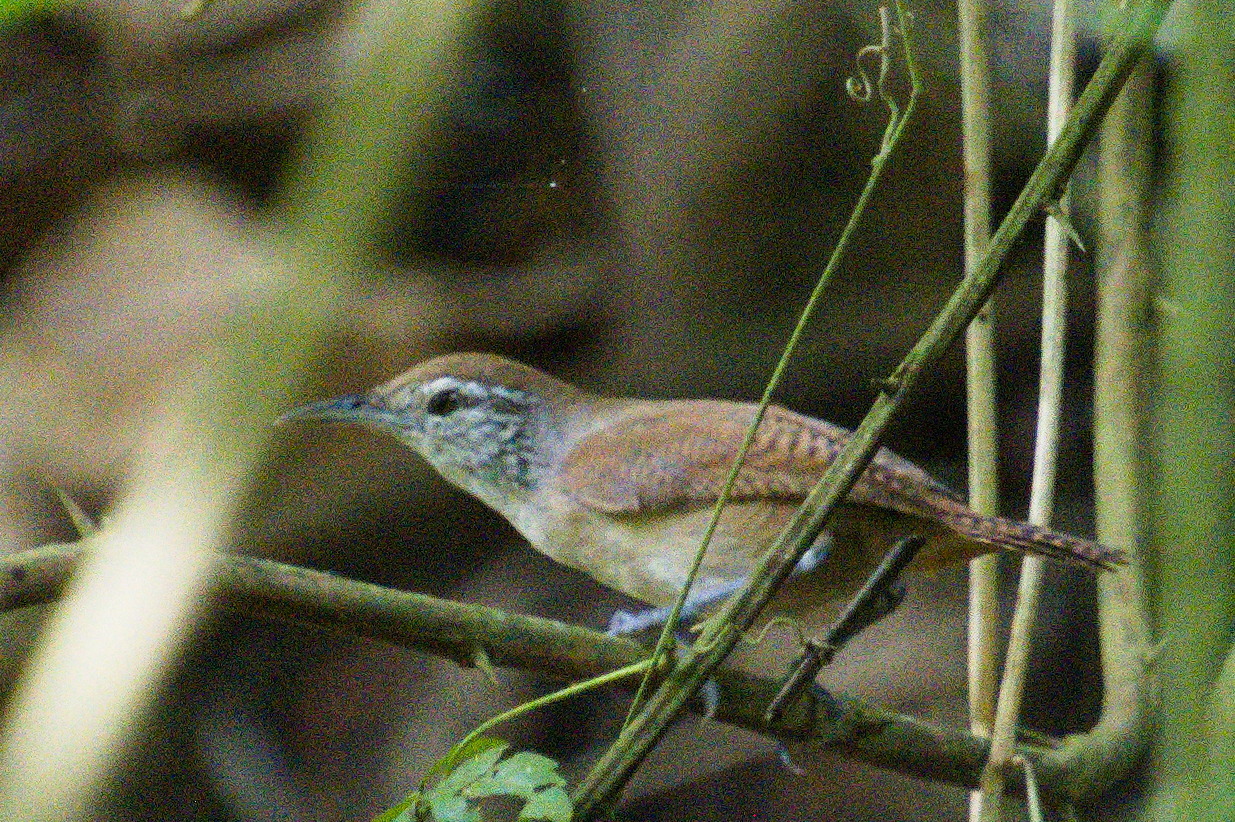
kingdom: Animalia
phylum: Chordata
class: Aves
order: Passeriformes
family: Troglodytidae
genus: Cantorchilus
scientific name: Cantorchilus leucotis
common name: Buff-breasted wren
